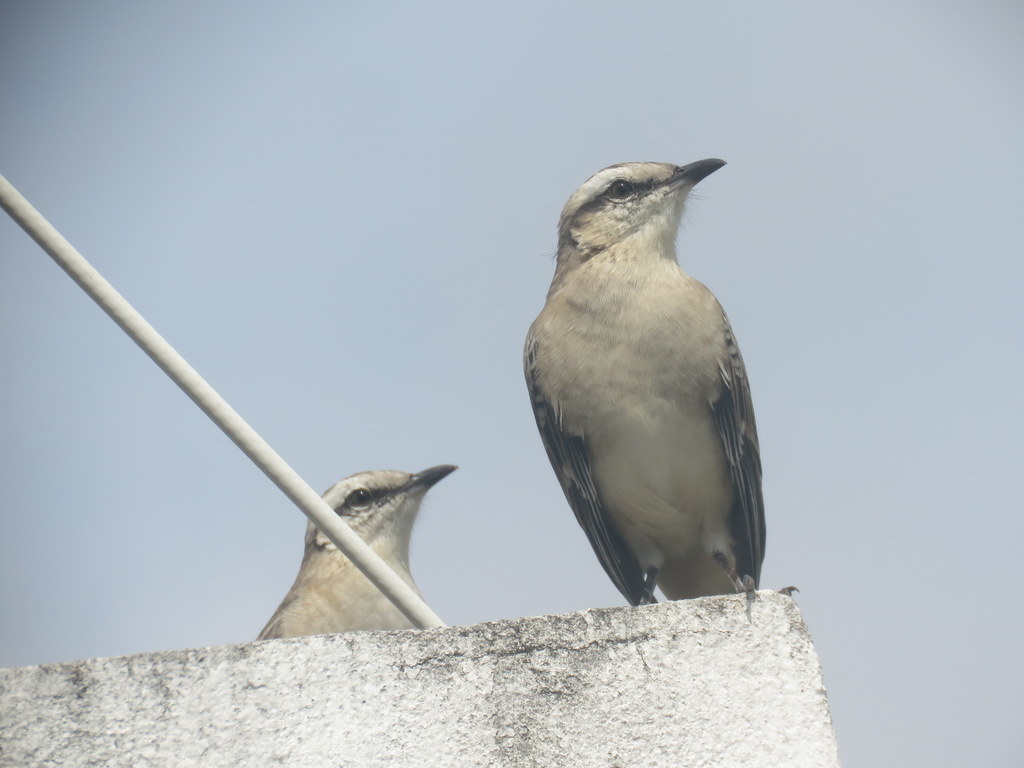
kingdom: Animalia
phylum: Chordata
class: Aves
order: Passeriformes
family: Mimidae
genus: Mimus
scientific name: Mimus saturninus
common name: Chalk-browed mockingbird
